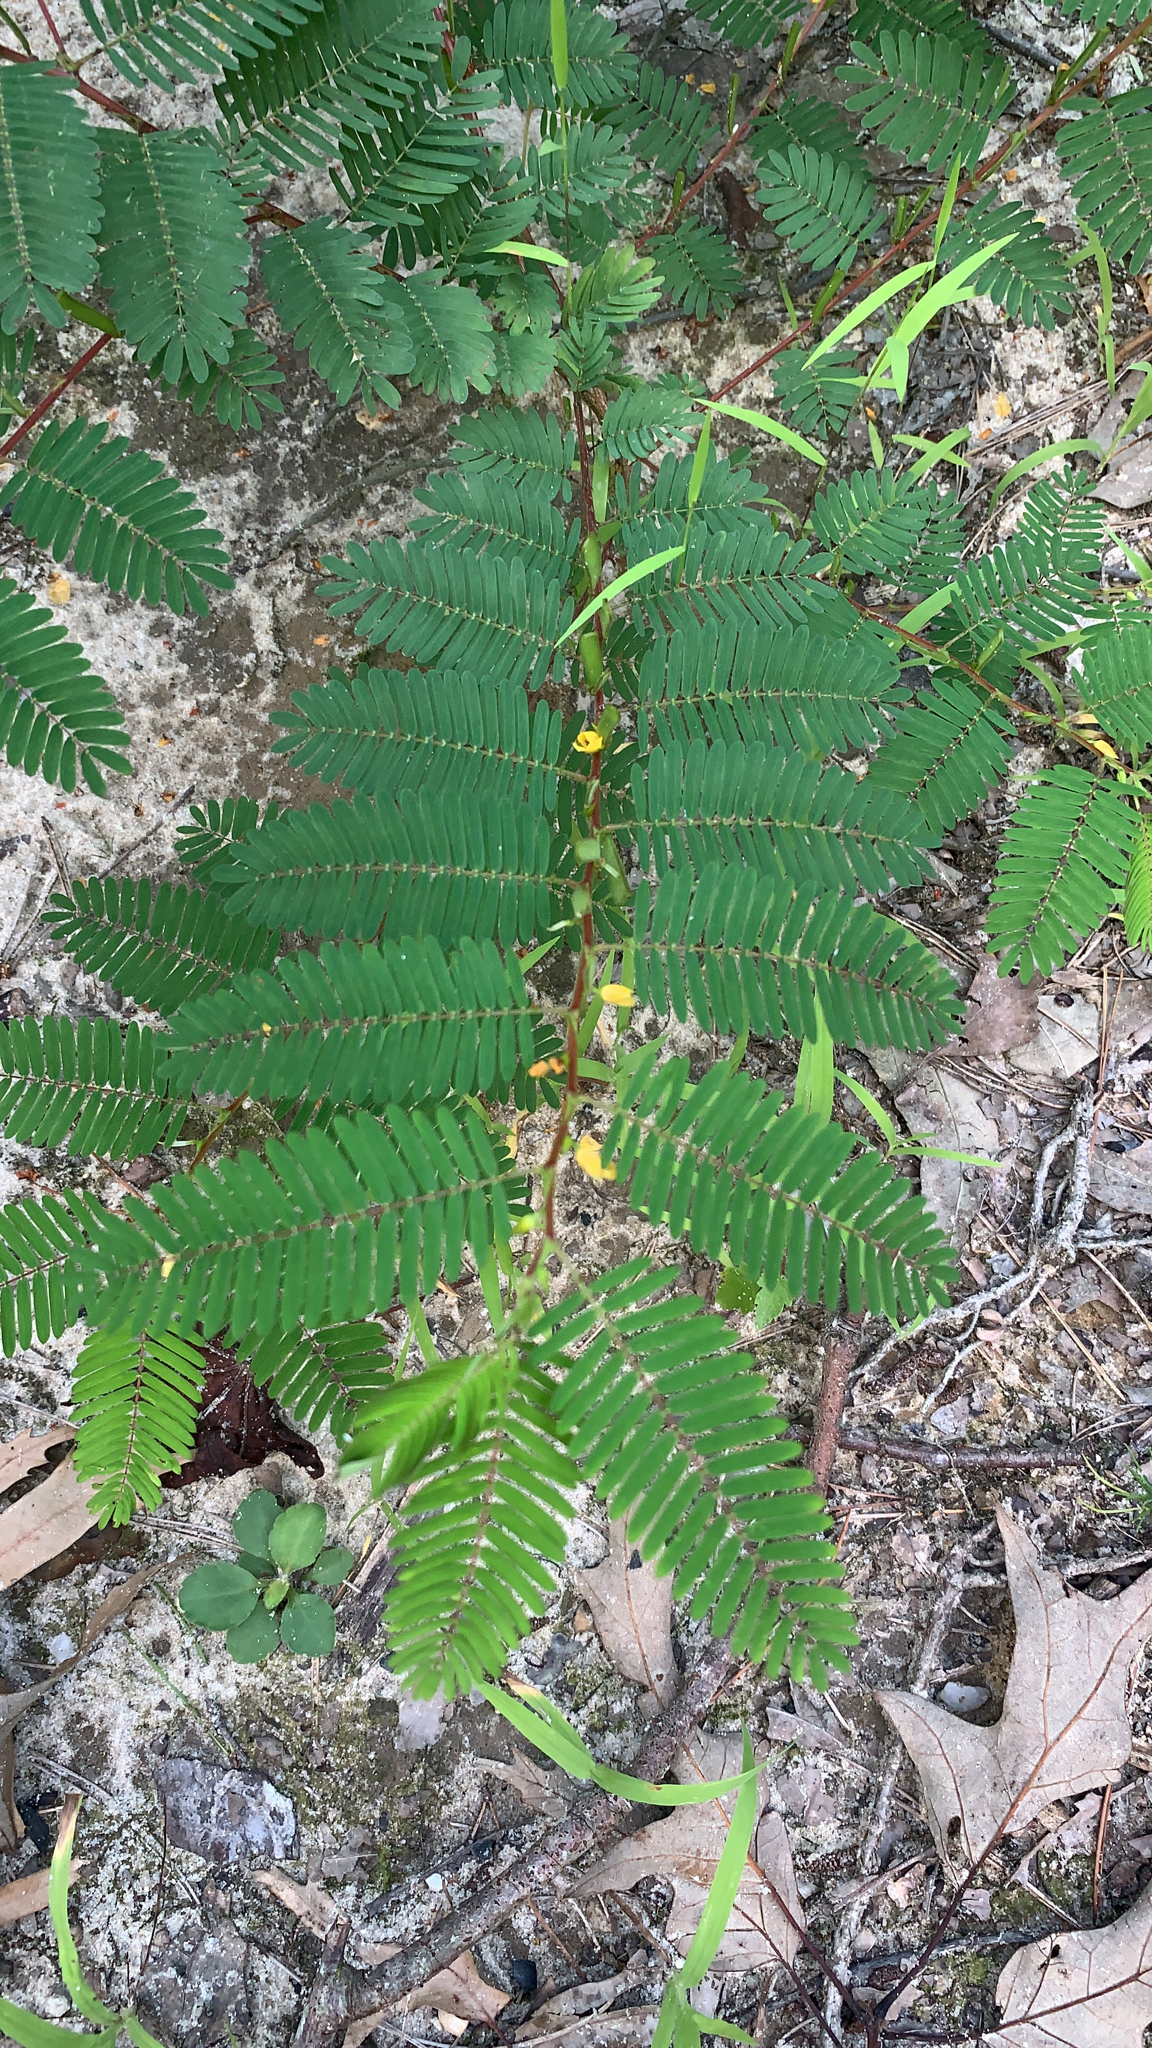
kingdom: Plantae
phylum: Tracheophyta
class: Magnoliopsida
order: Fabales
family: Fabaceae
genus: Chamaecrista
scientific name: Chamaecrista nictitans
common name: Sensitive cassia
